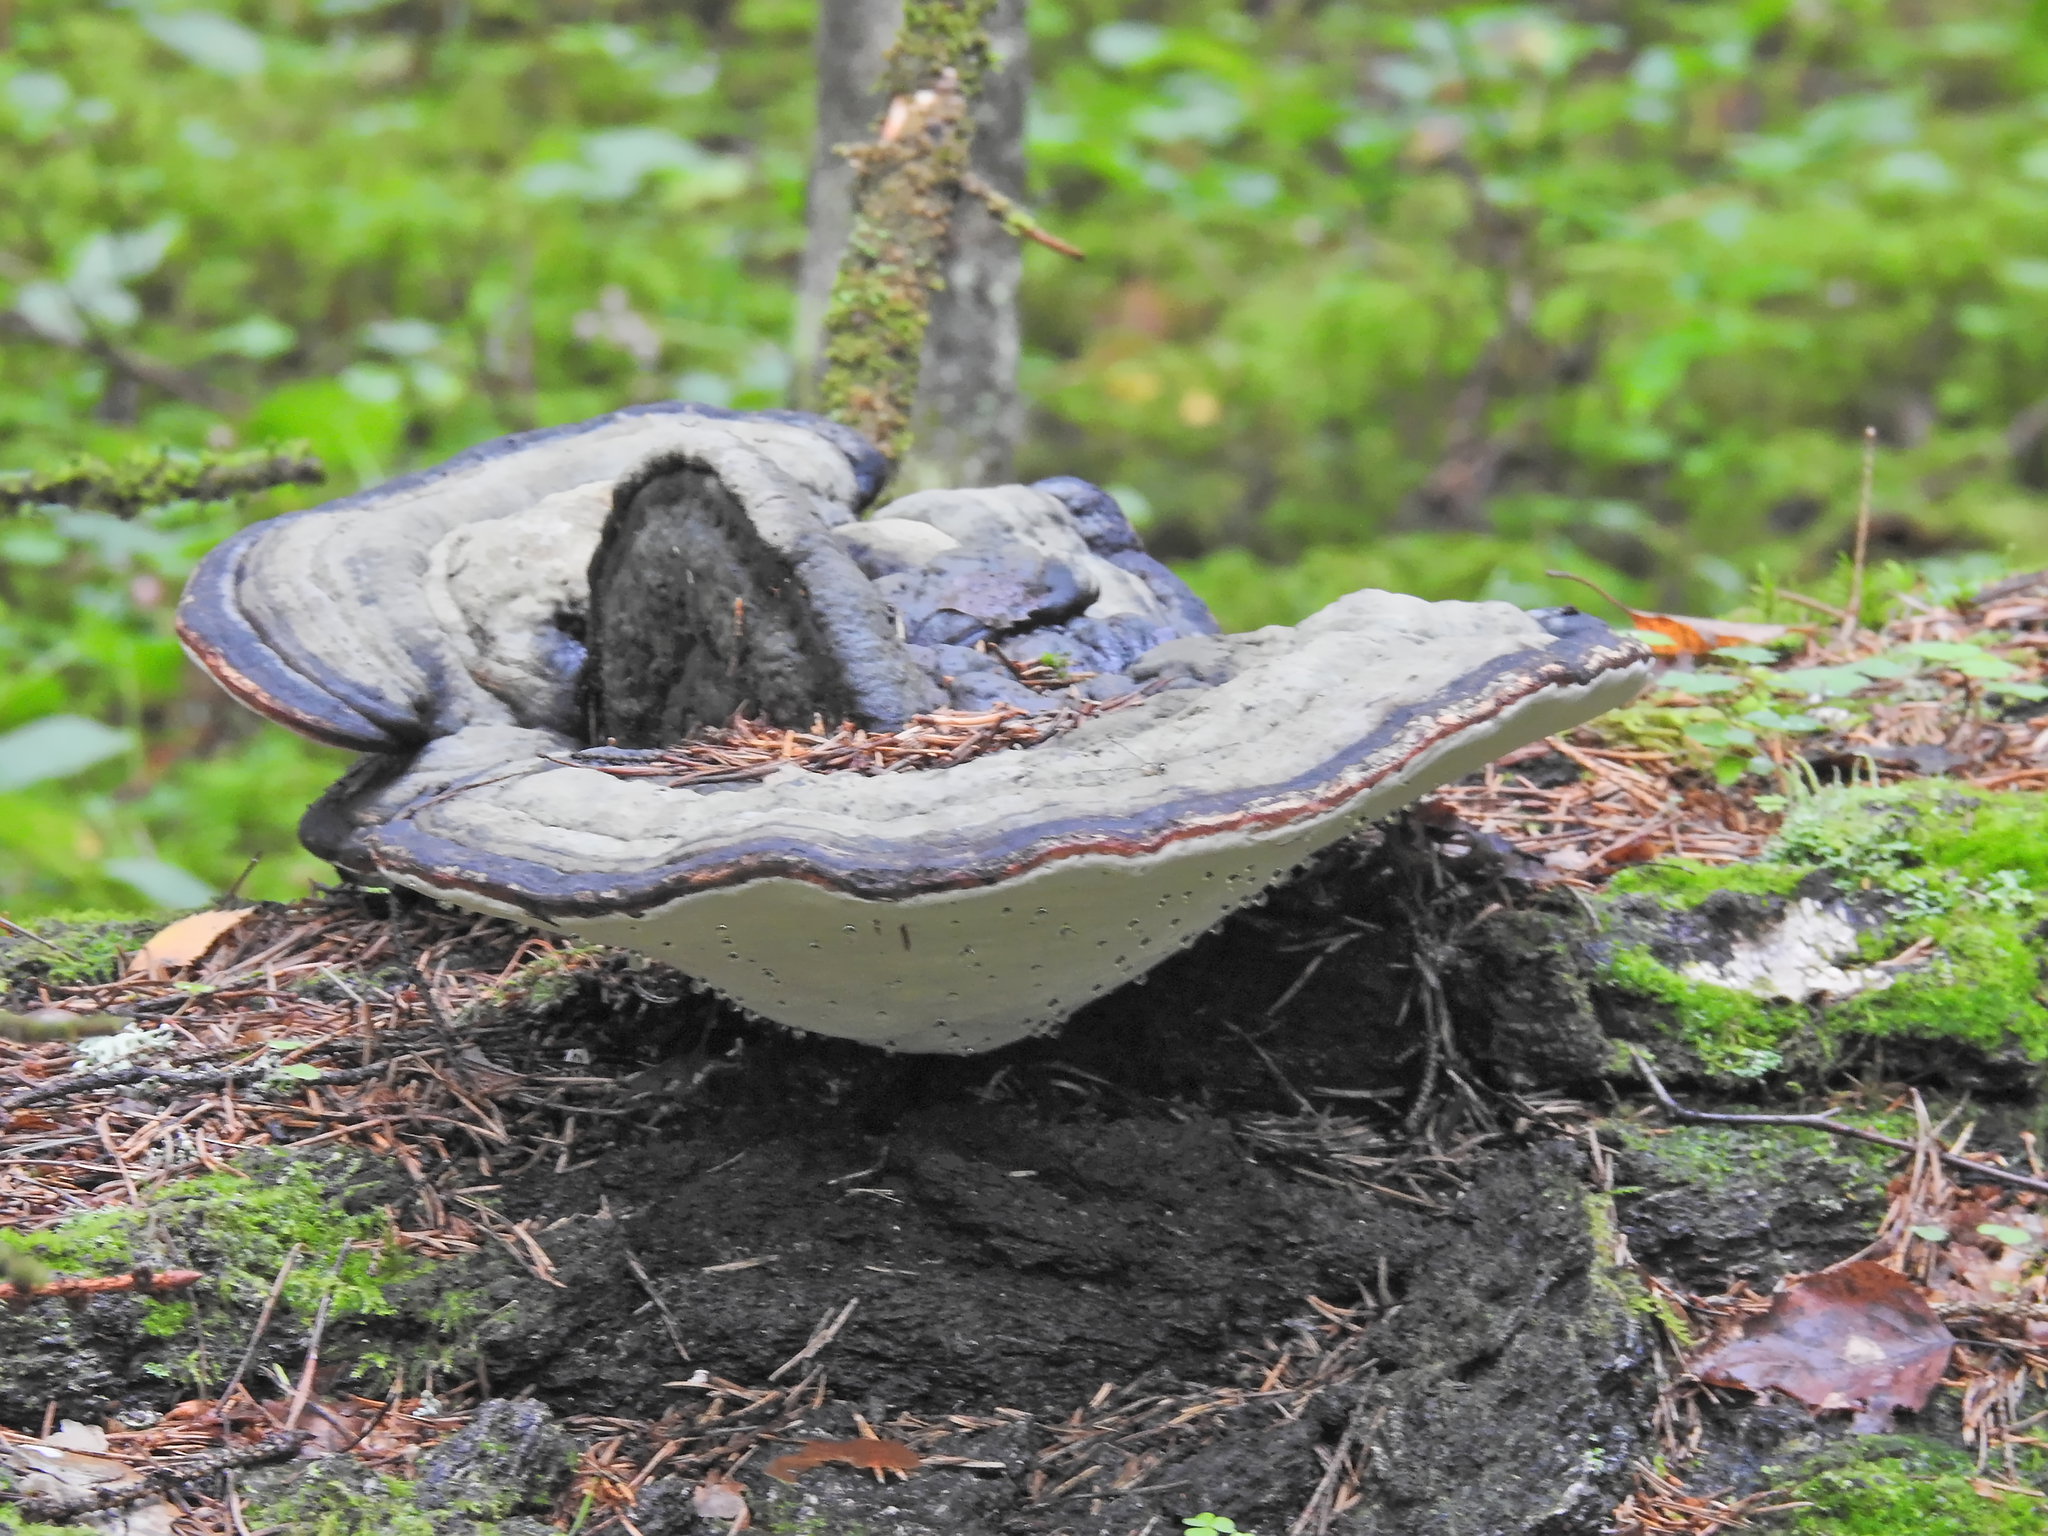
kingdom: Fungi
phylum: Basidiomycota
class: Agaricomycetes
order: Polyporales
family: Fomitopsidaceae
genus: Fomitopsis
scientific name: Fomitopsis pinicola
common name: Red-belted bracket
